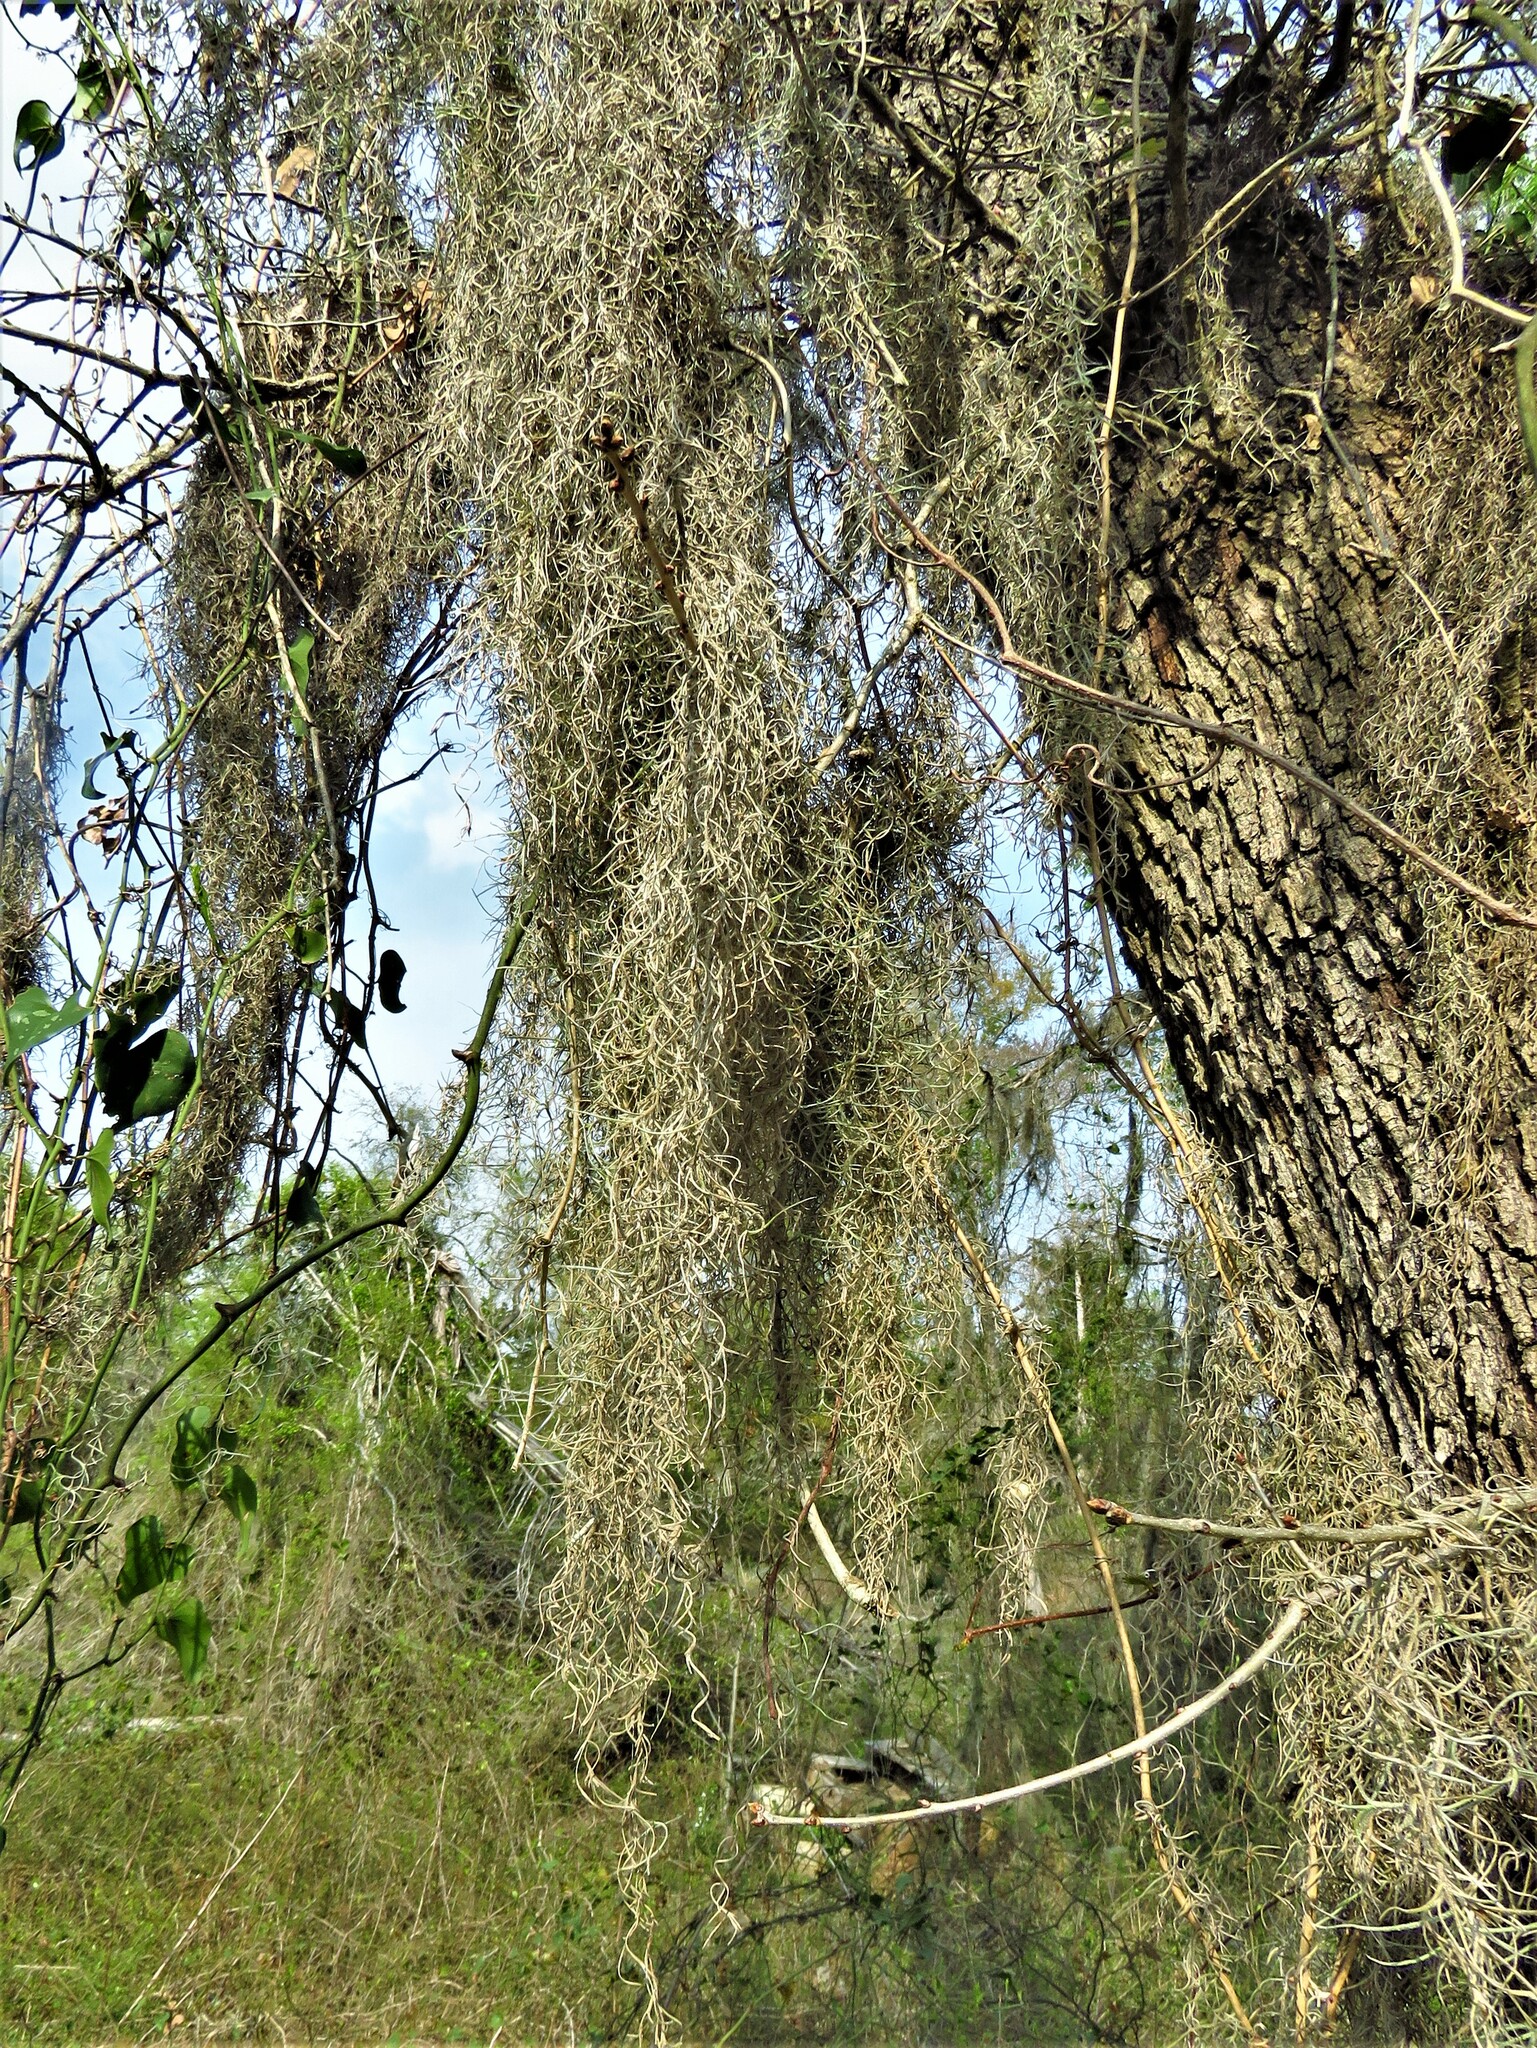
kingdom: Plantae
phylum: Tracheophyta
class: Liliopsida
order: Poales
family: Bromeliaceae
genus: Tillandsia
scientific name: Tillandsia usneoides
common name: Spanish moss
